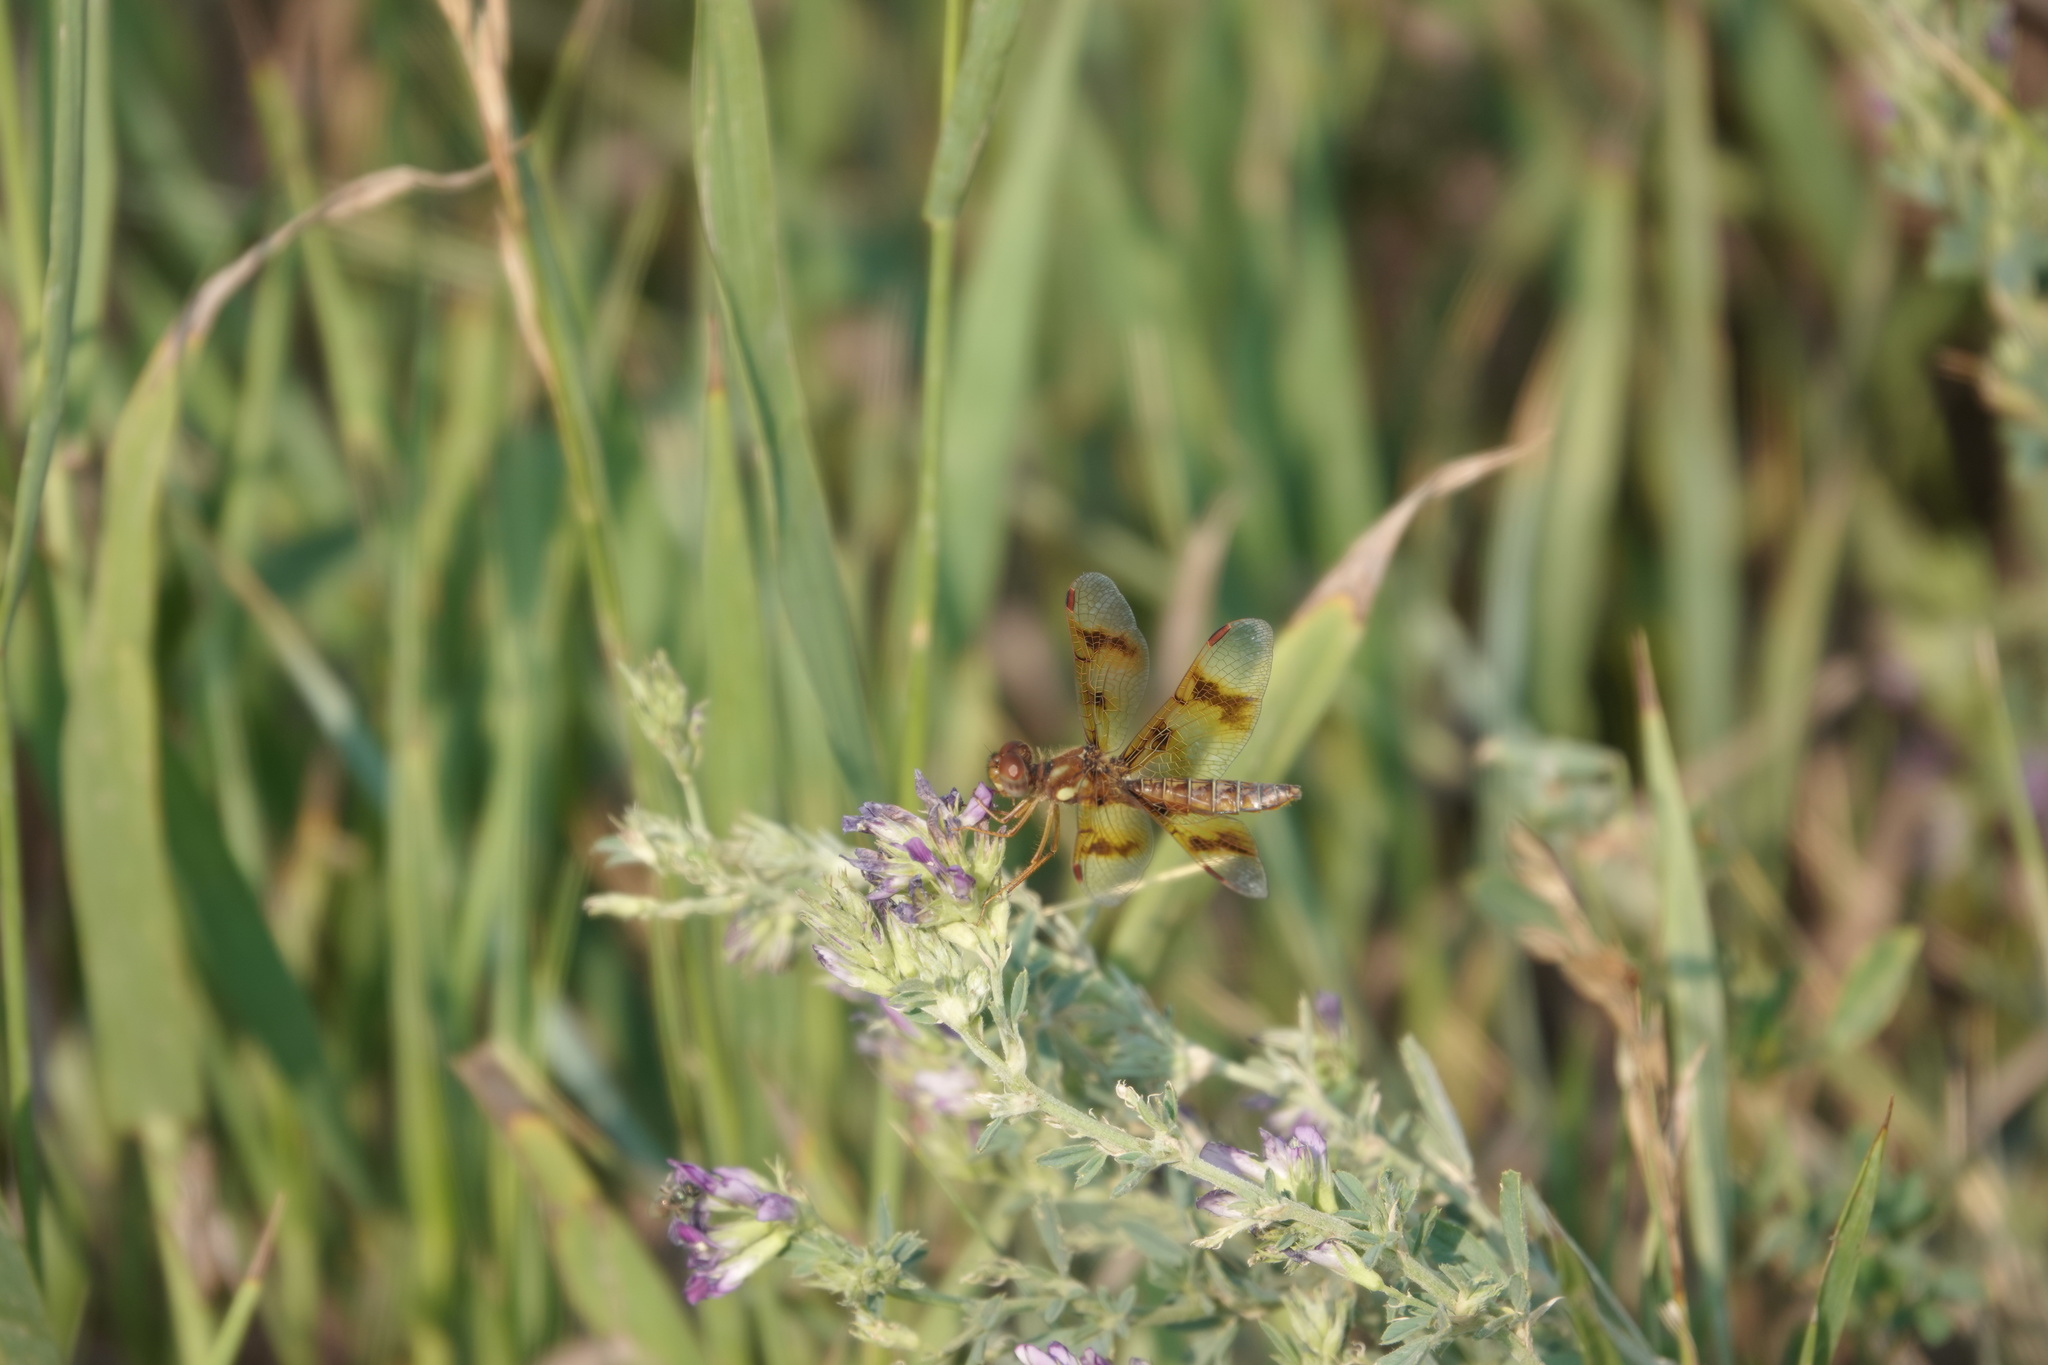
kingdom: Animalia
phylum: Arthropoda
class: Insecta
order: Odonata
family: Libellulidae
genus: Perithemis
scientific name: Perithemis tenera
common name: Eastern amberwing
